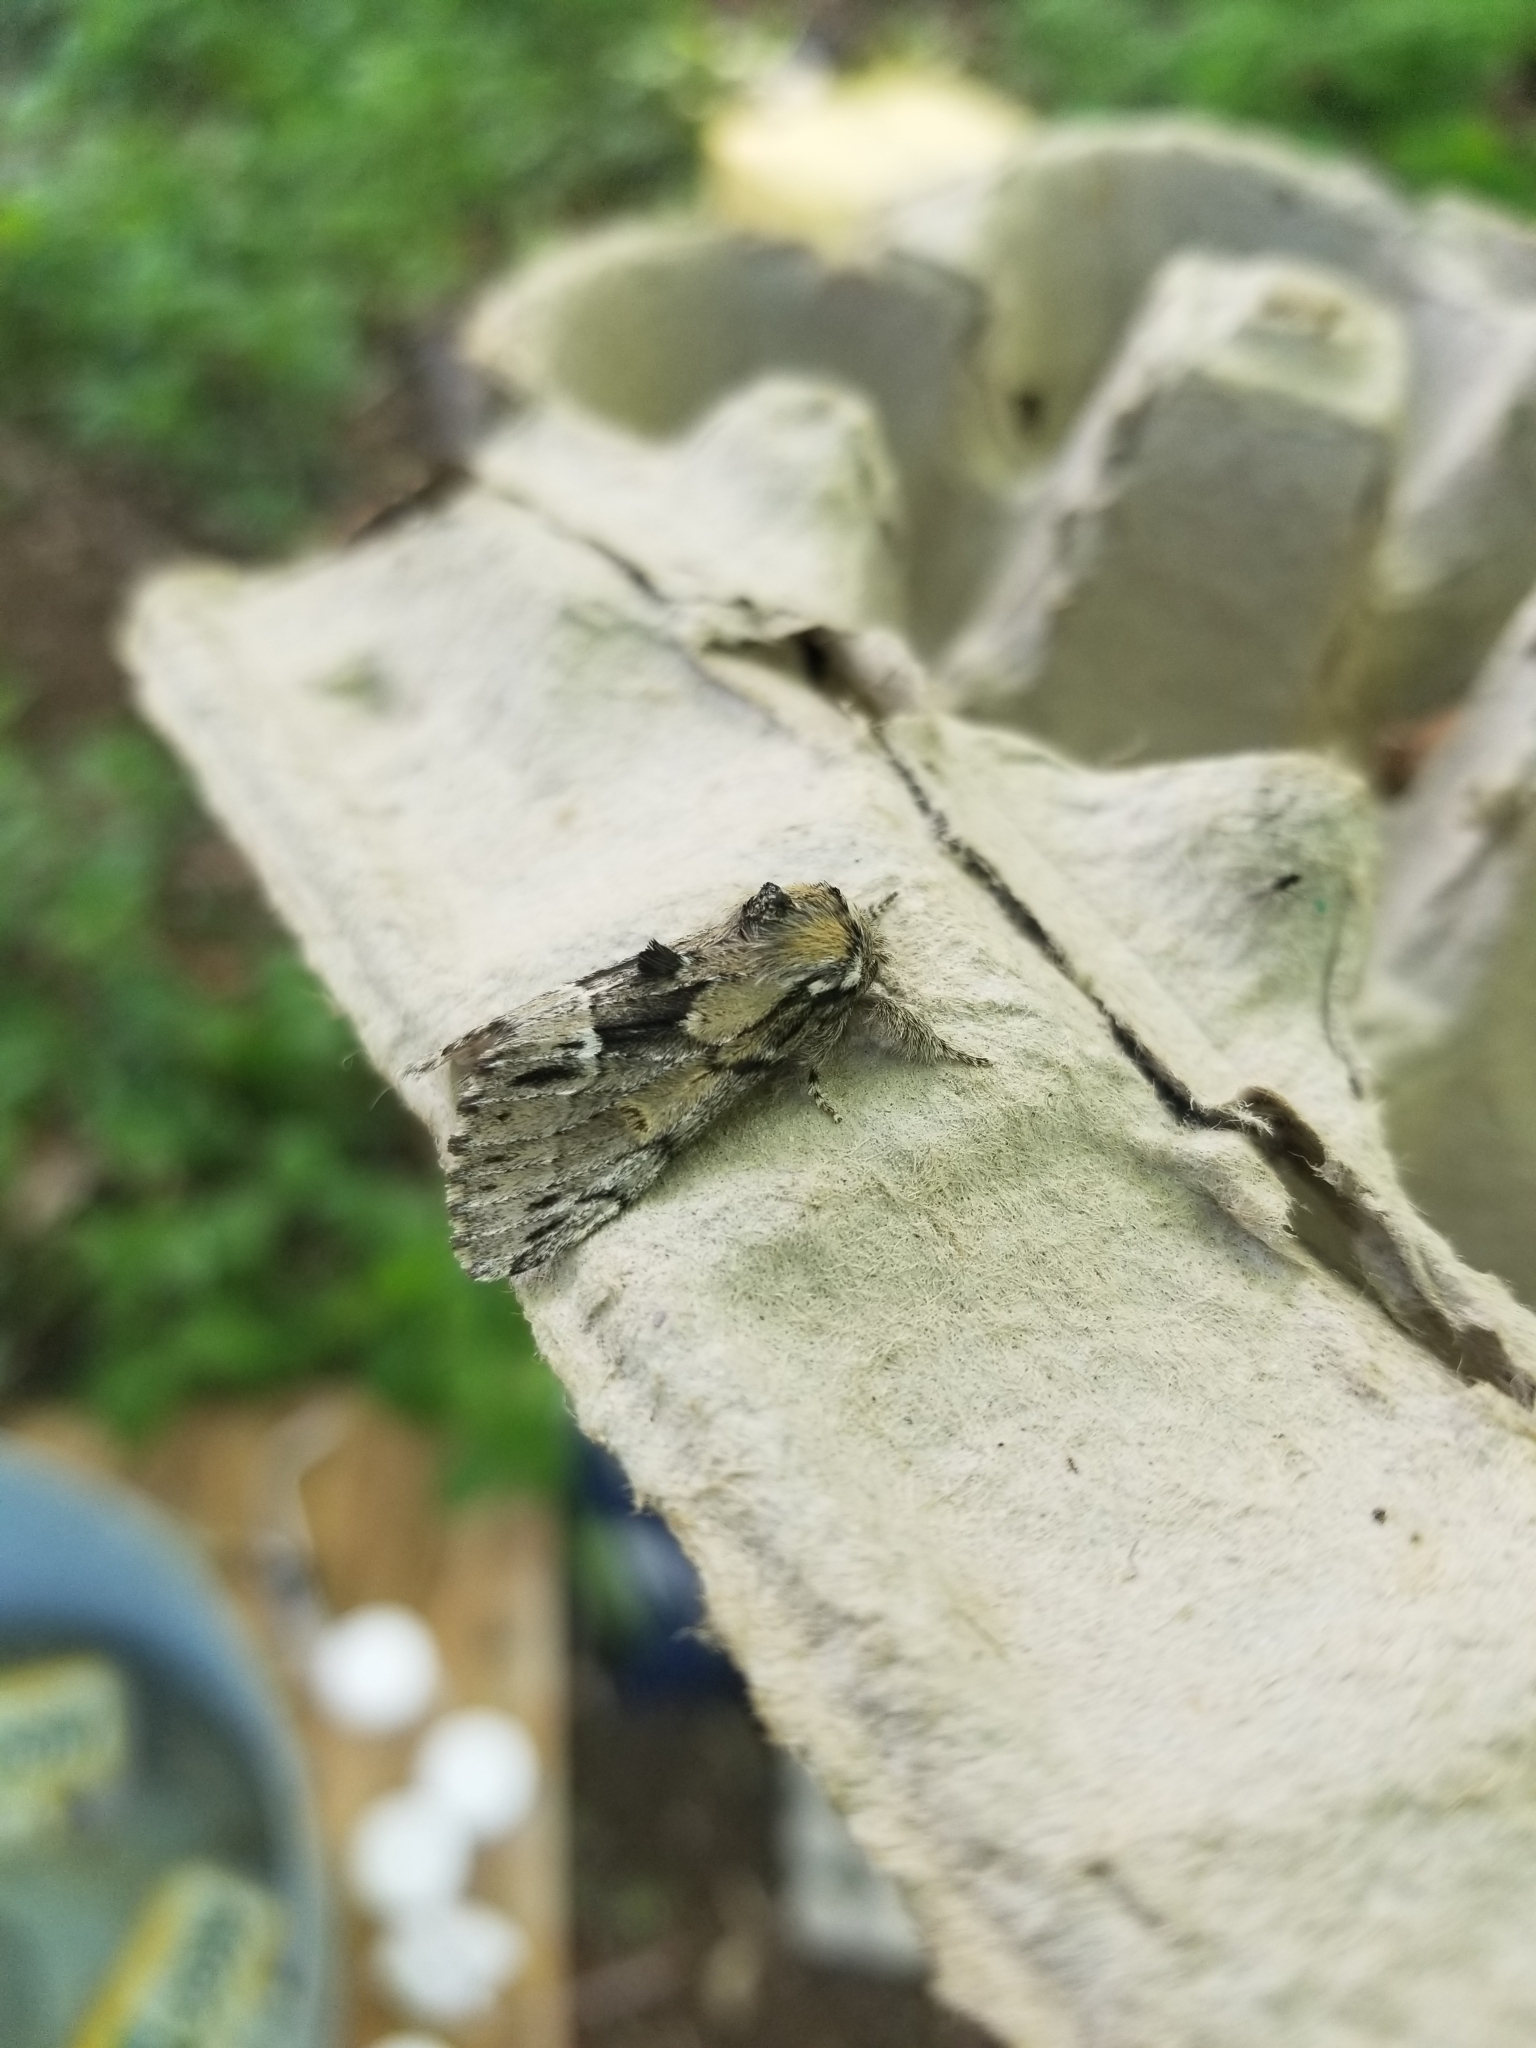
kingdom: Animalia
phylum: Arthropoda
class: Insecta
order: Lepidoptera
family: Notodontidae
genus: Paraeschra
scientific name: Paraeschra georgica
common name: Georgian prominent
